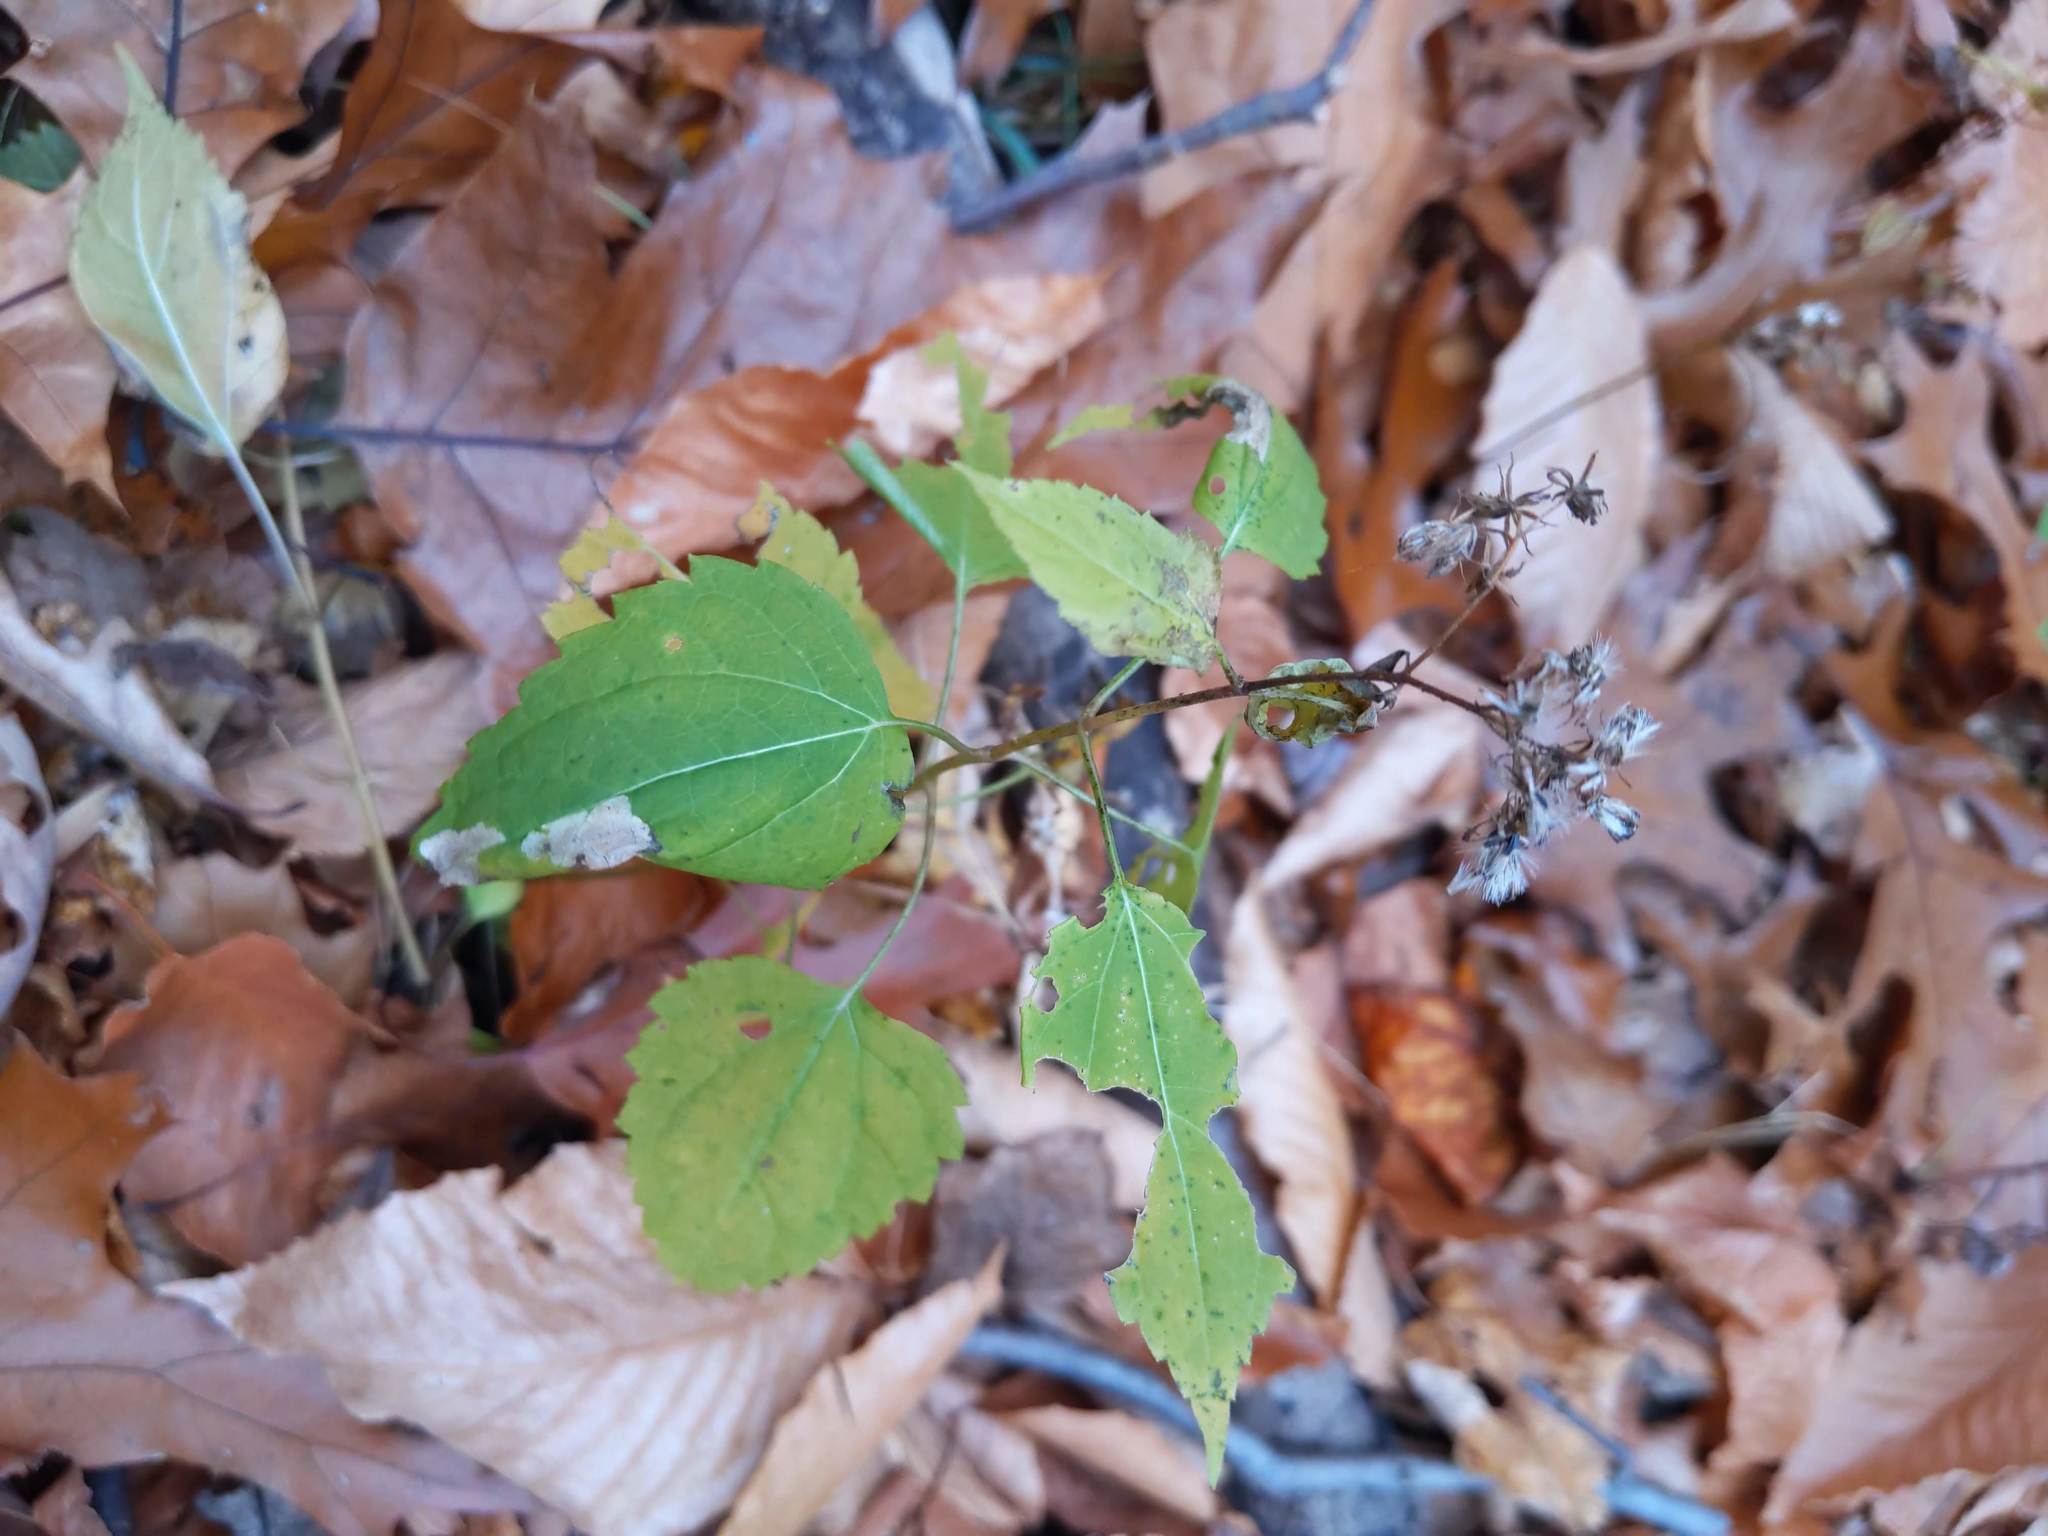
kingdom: Plantae
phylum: Tracheophyta
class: Magnoliopsida
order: Asterales
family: Asteraceae
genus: Ageratina
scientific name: Ageratina altissima
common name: White snakeroot
